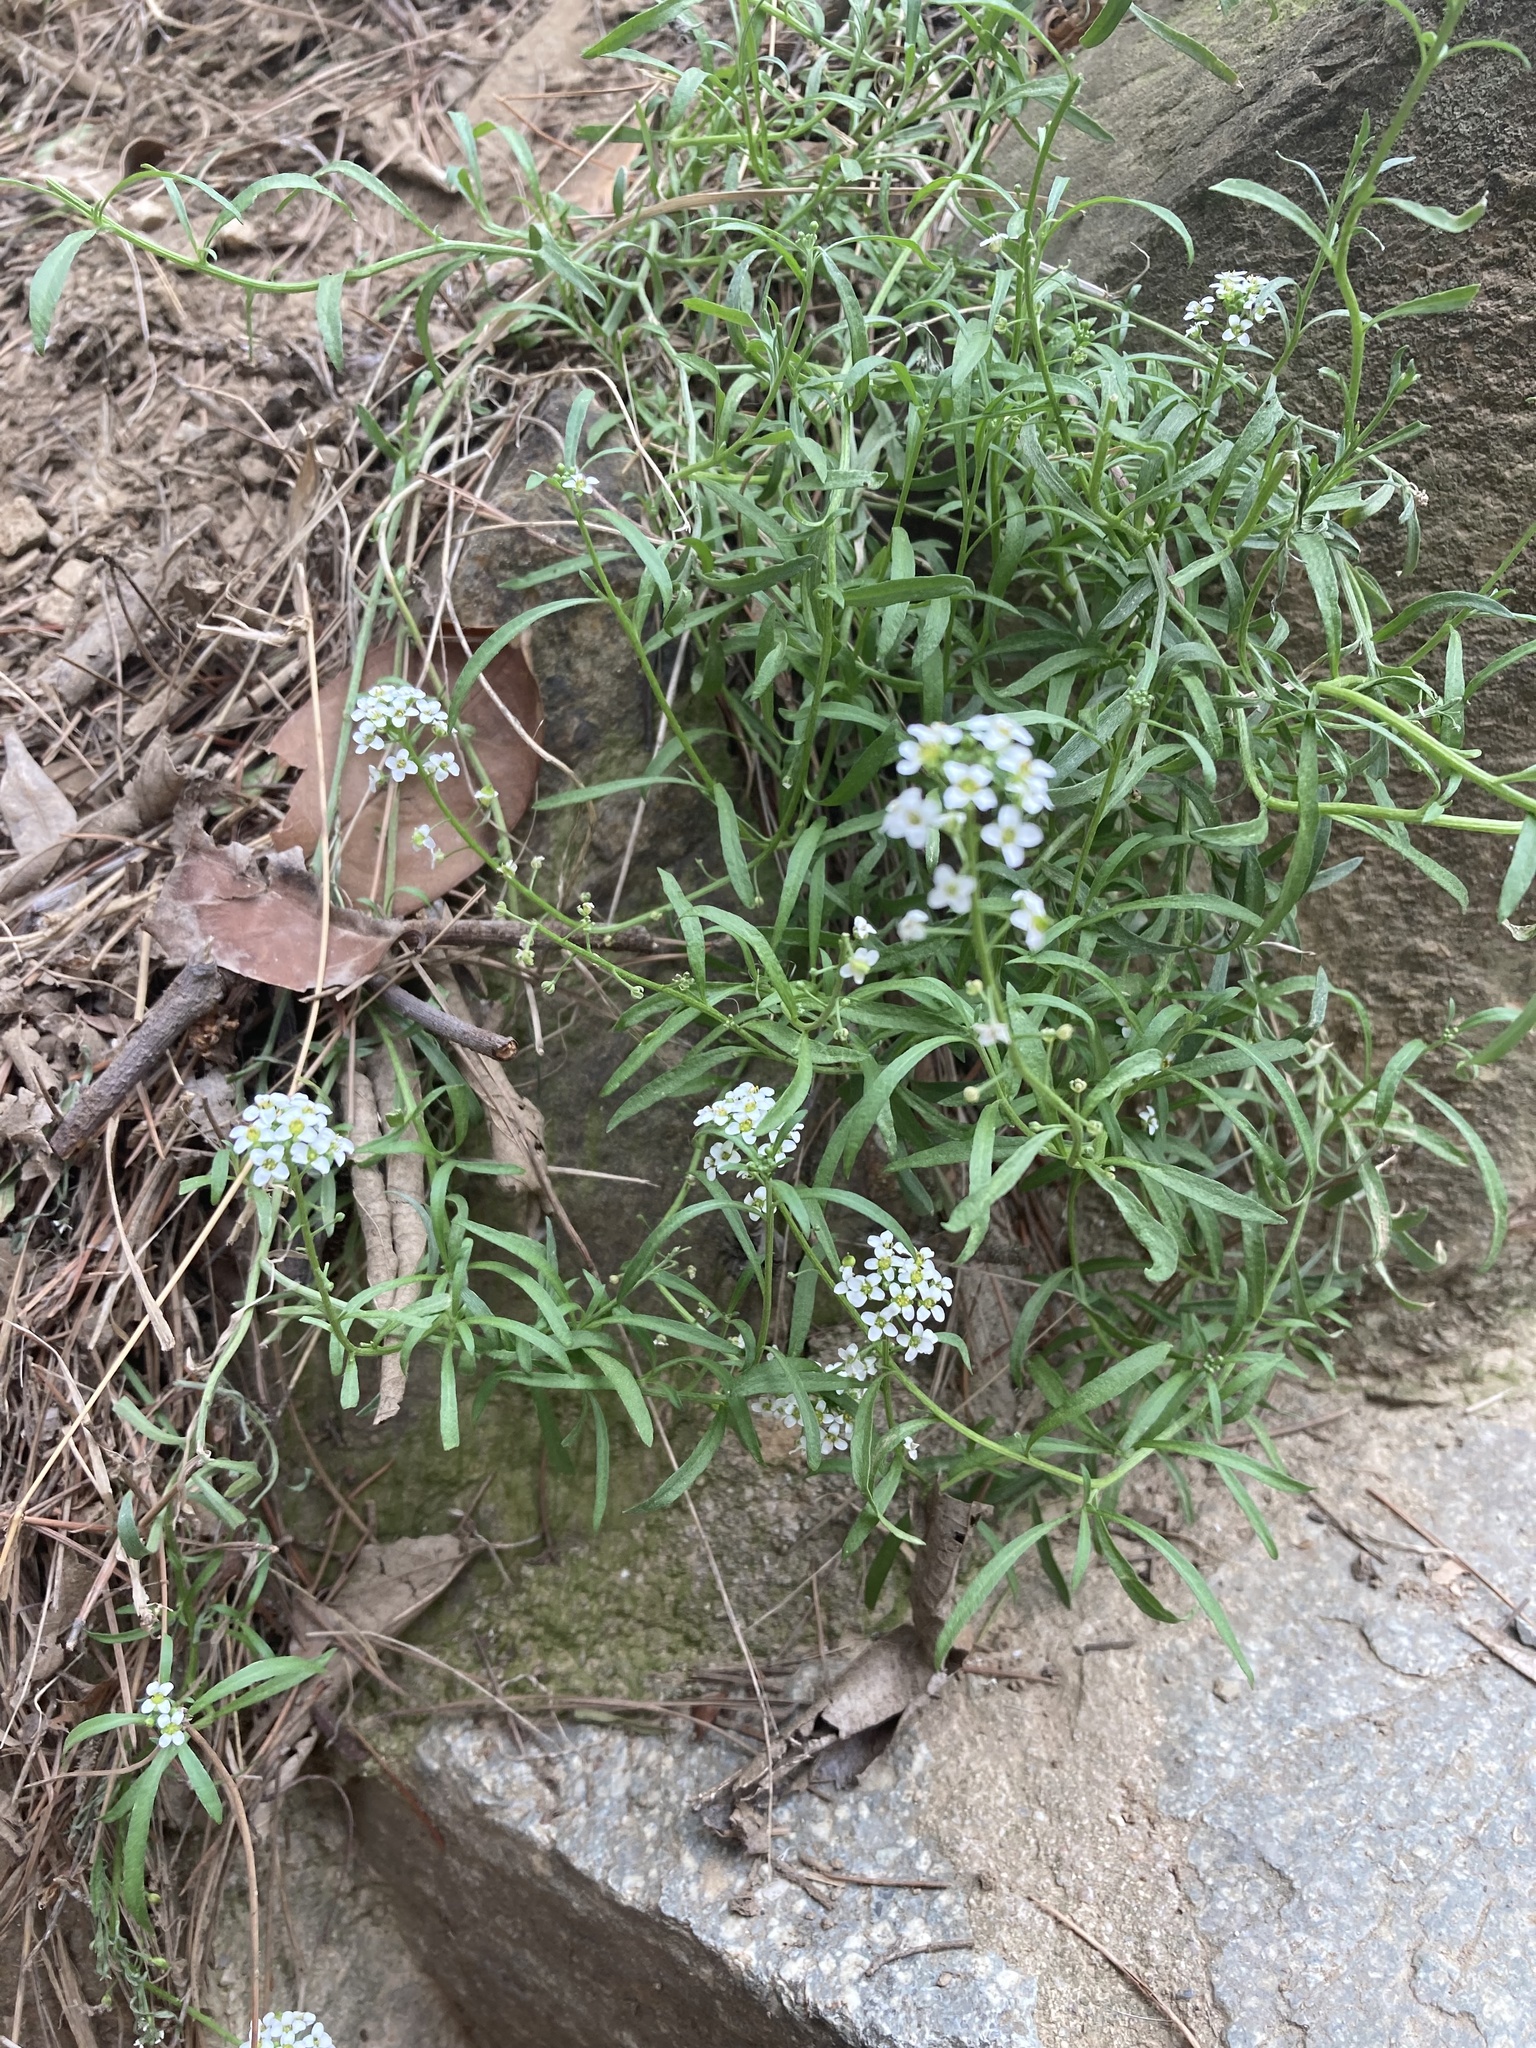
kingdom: Plantae
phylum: Tracheophyta
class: Magnoliopsida
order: Brassicales
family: Brassicaceae
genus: Lobularia
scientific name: Lobularia maritima
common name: Sweet alison
